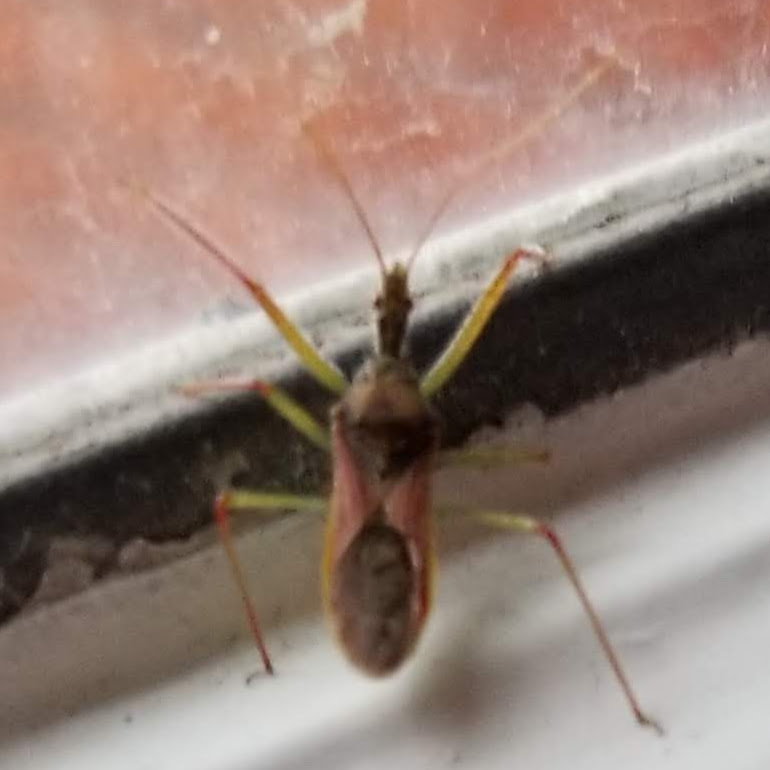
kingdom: Animalia
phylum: Arthropoda
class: Insecta
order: Hemiptera
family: Reduviidae
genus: Zelus
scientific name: Zelus renardii
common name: Assassin bug
